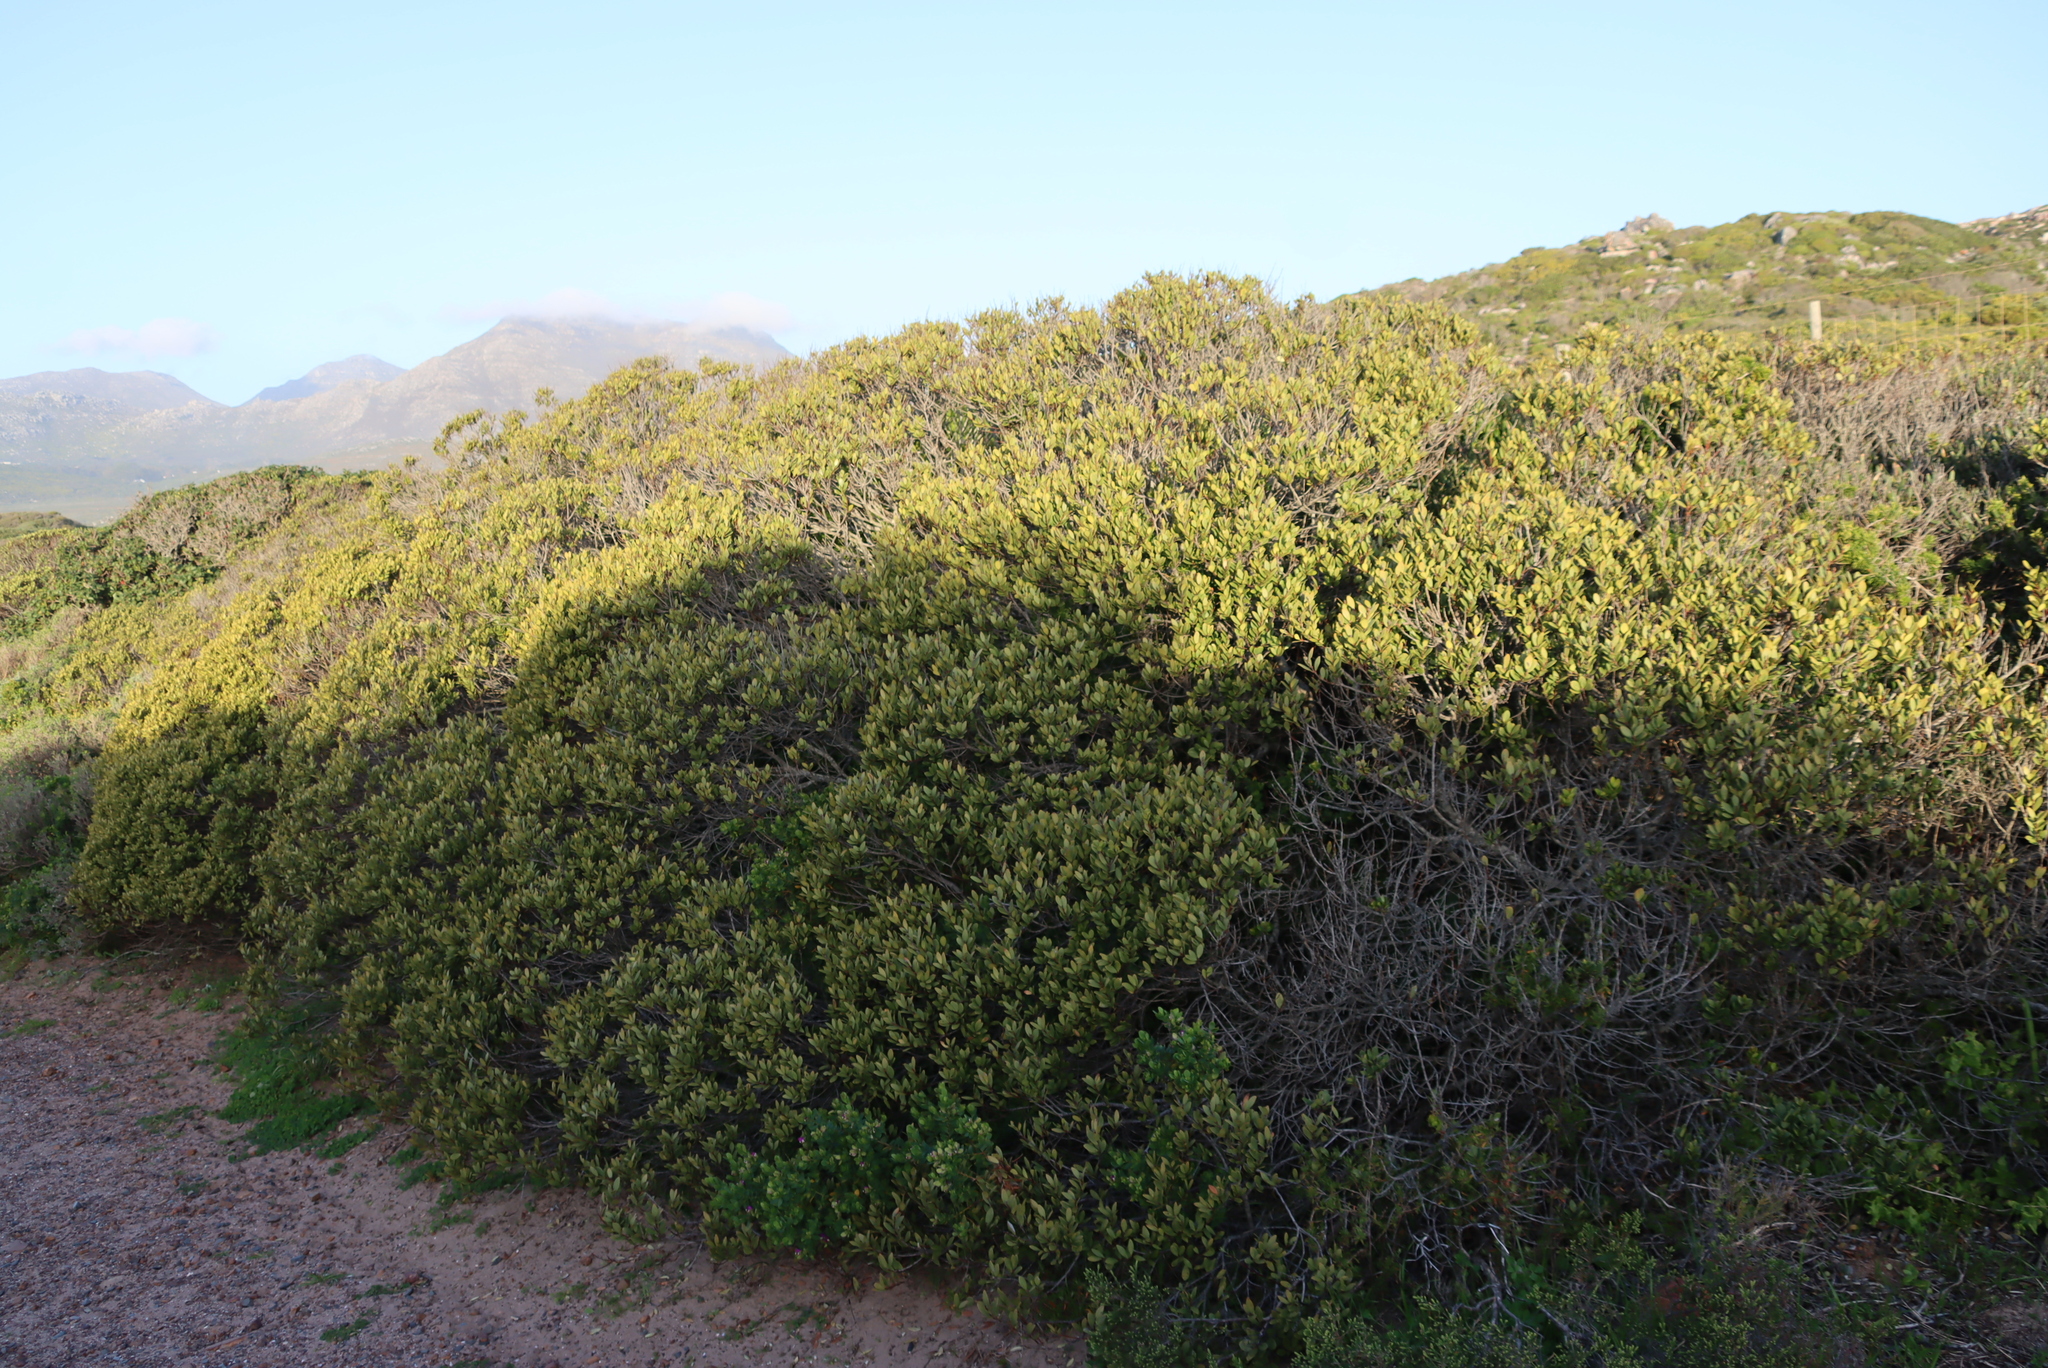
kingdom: Plantae
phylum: Tracheophyta
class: Magnoliopsida
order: Ericales
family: Ebenaceae
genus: Euclea
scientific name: Euclea racemosa
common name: Dune guarri
